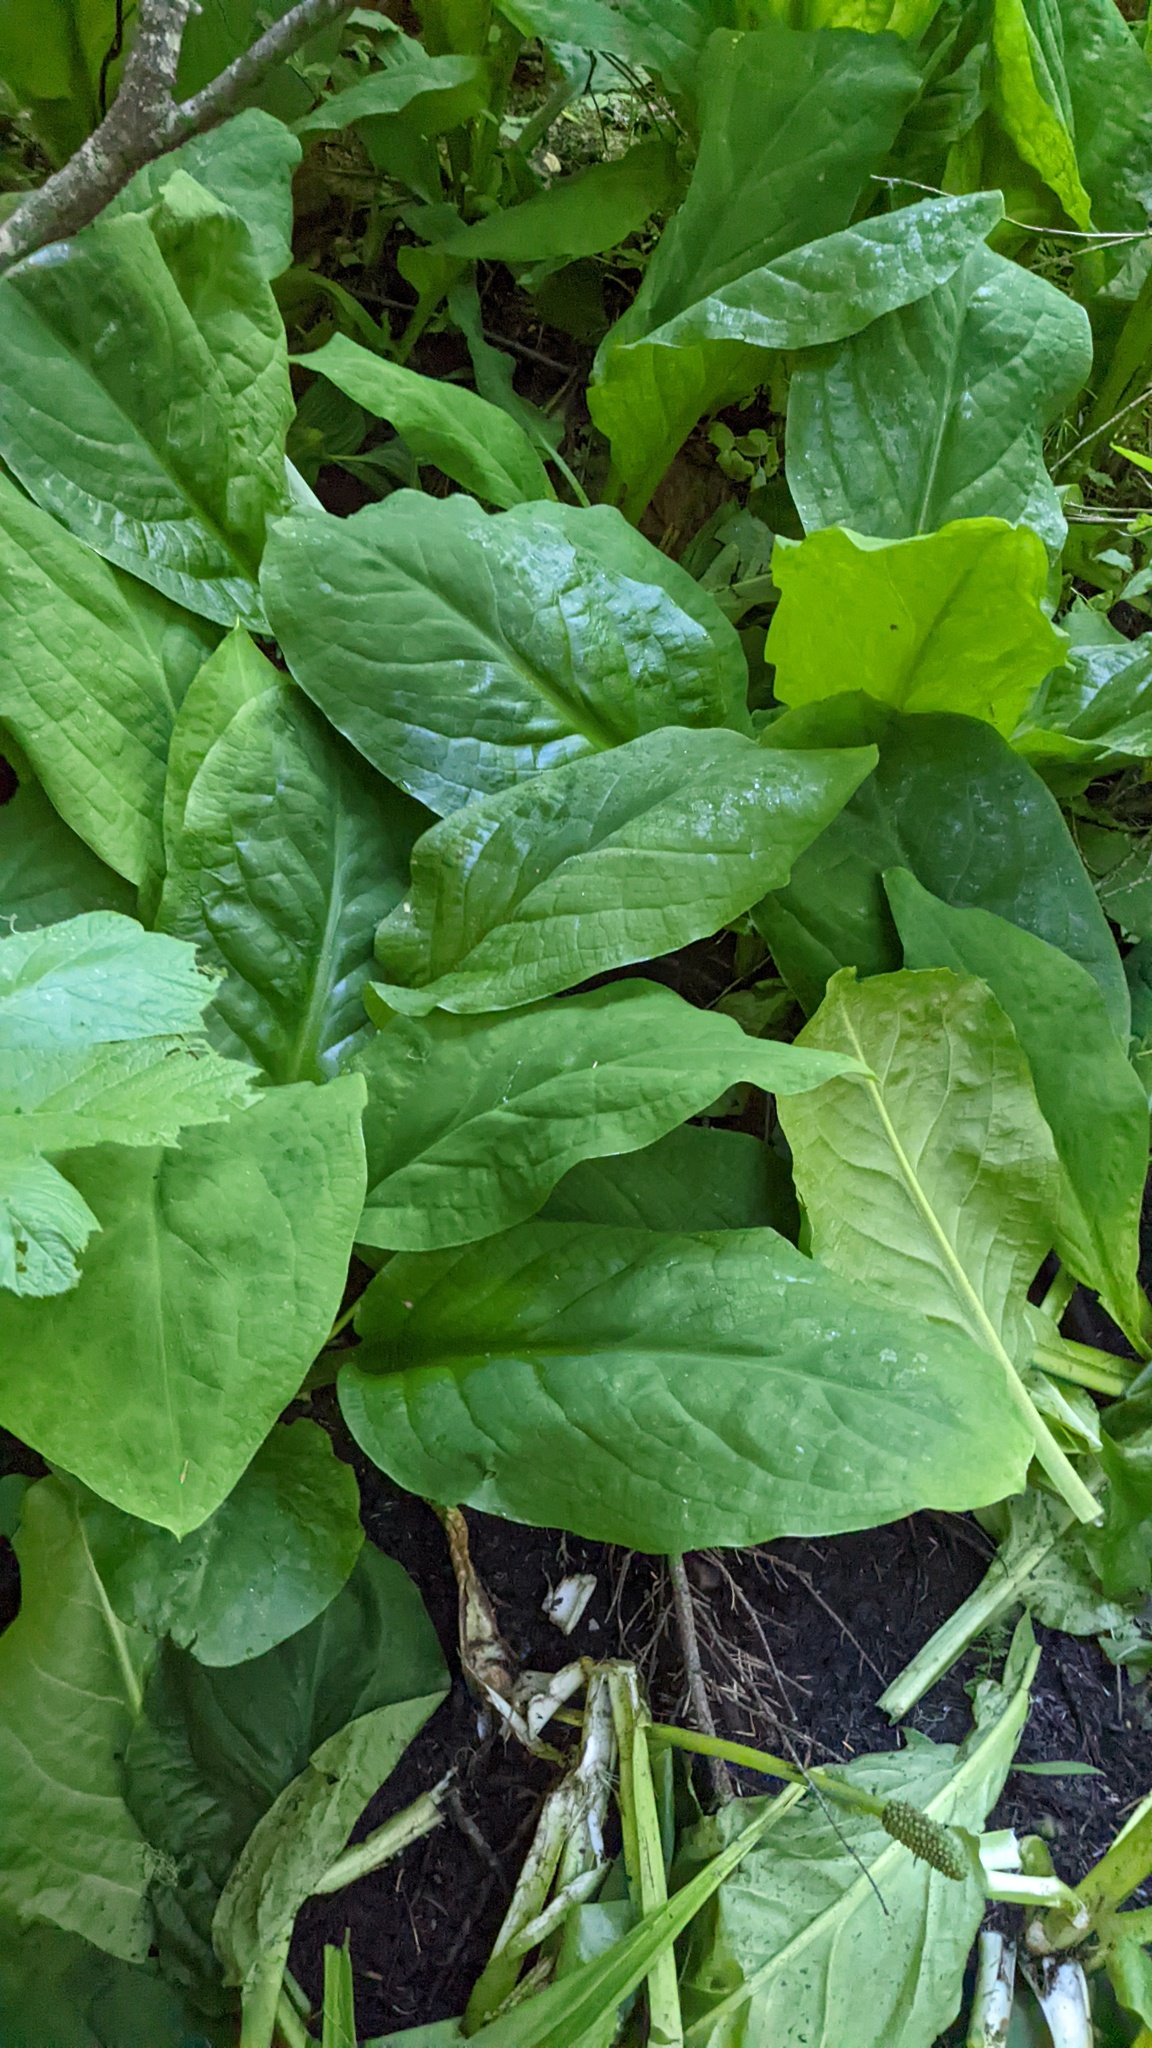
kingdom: Plantae
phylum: Tracheophyta
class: Liliopsida
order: Alismatales
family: Araceae
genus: Lysichiton
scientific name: Lysichiton americanus
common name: American skunk cabbage
